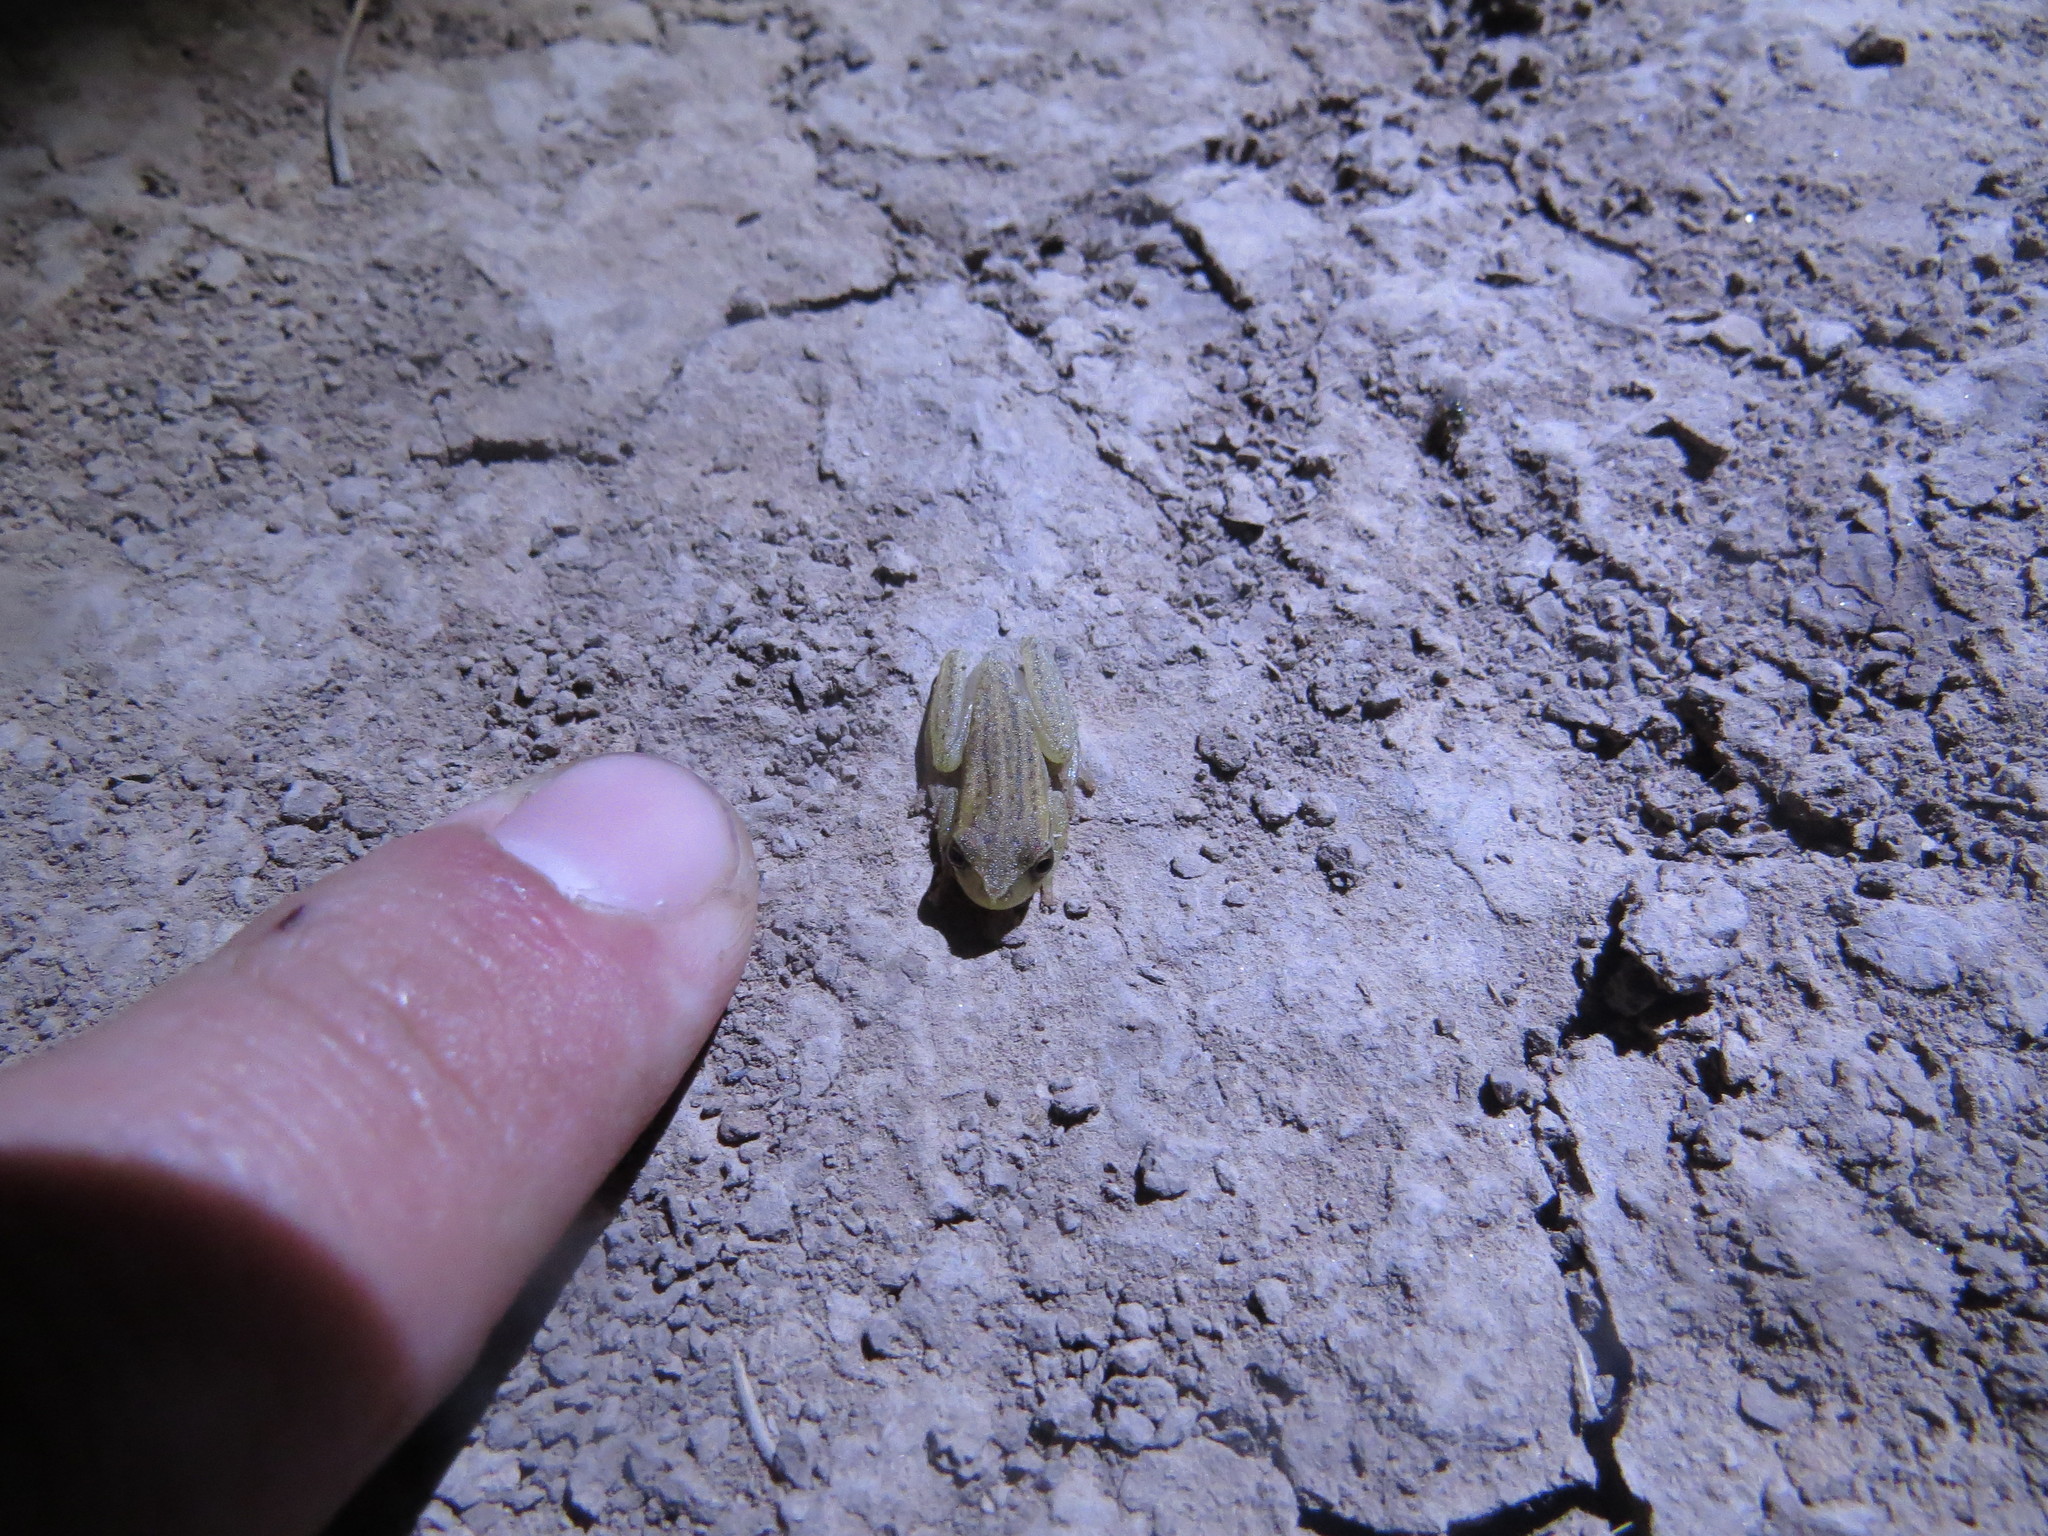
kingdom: Animalia
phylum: Chordata
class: Amphibia
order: Anura
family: Hylidae
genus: Dendropsophus
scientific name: Dendropsophus nanus
